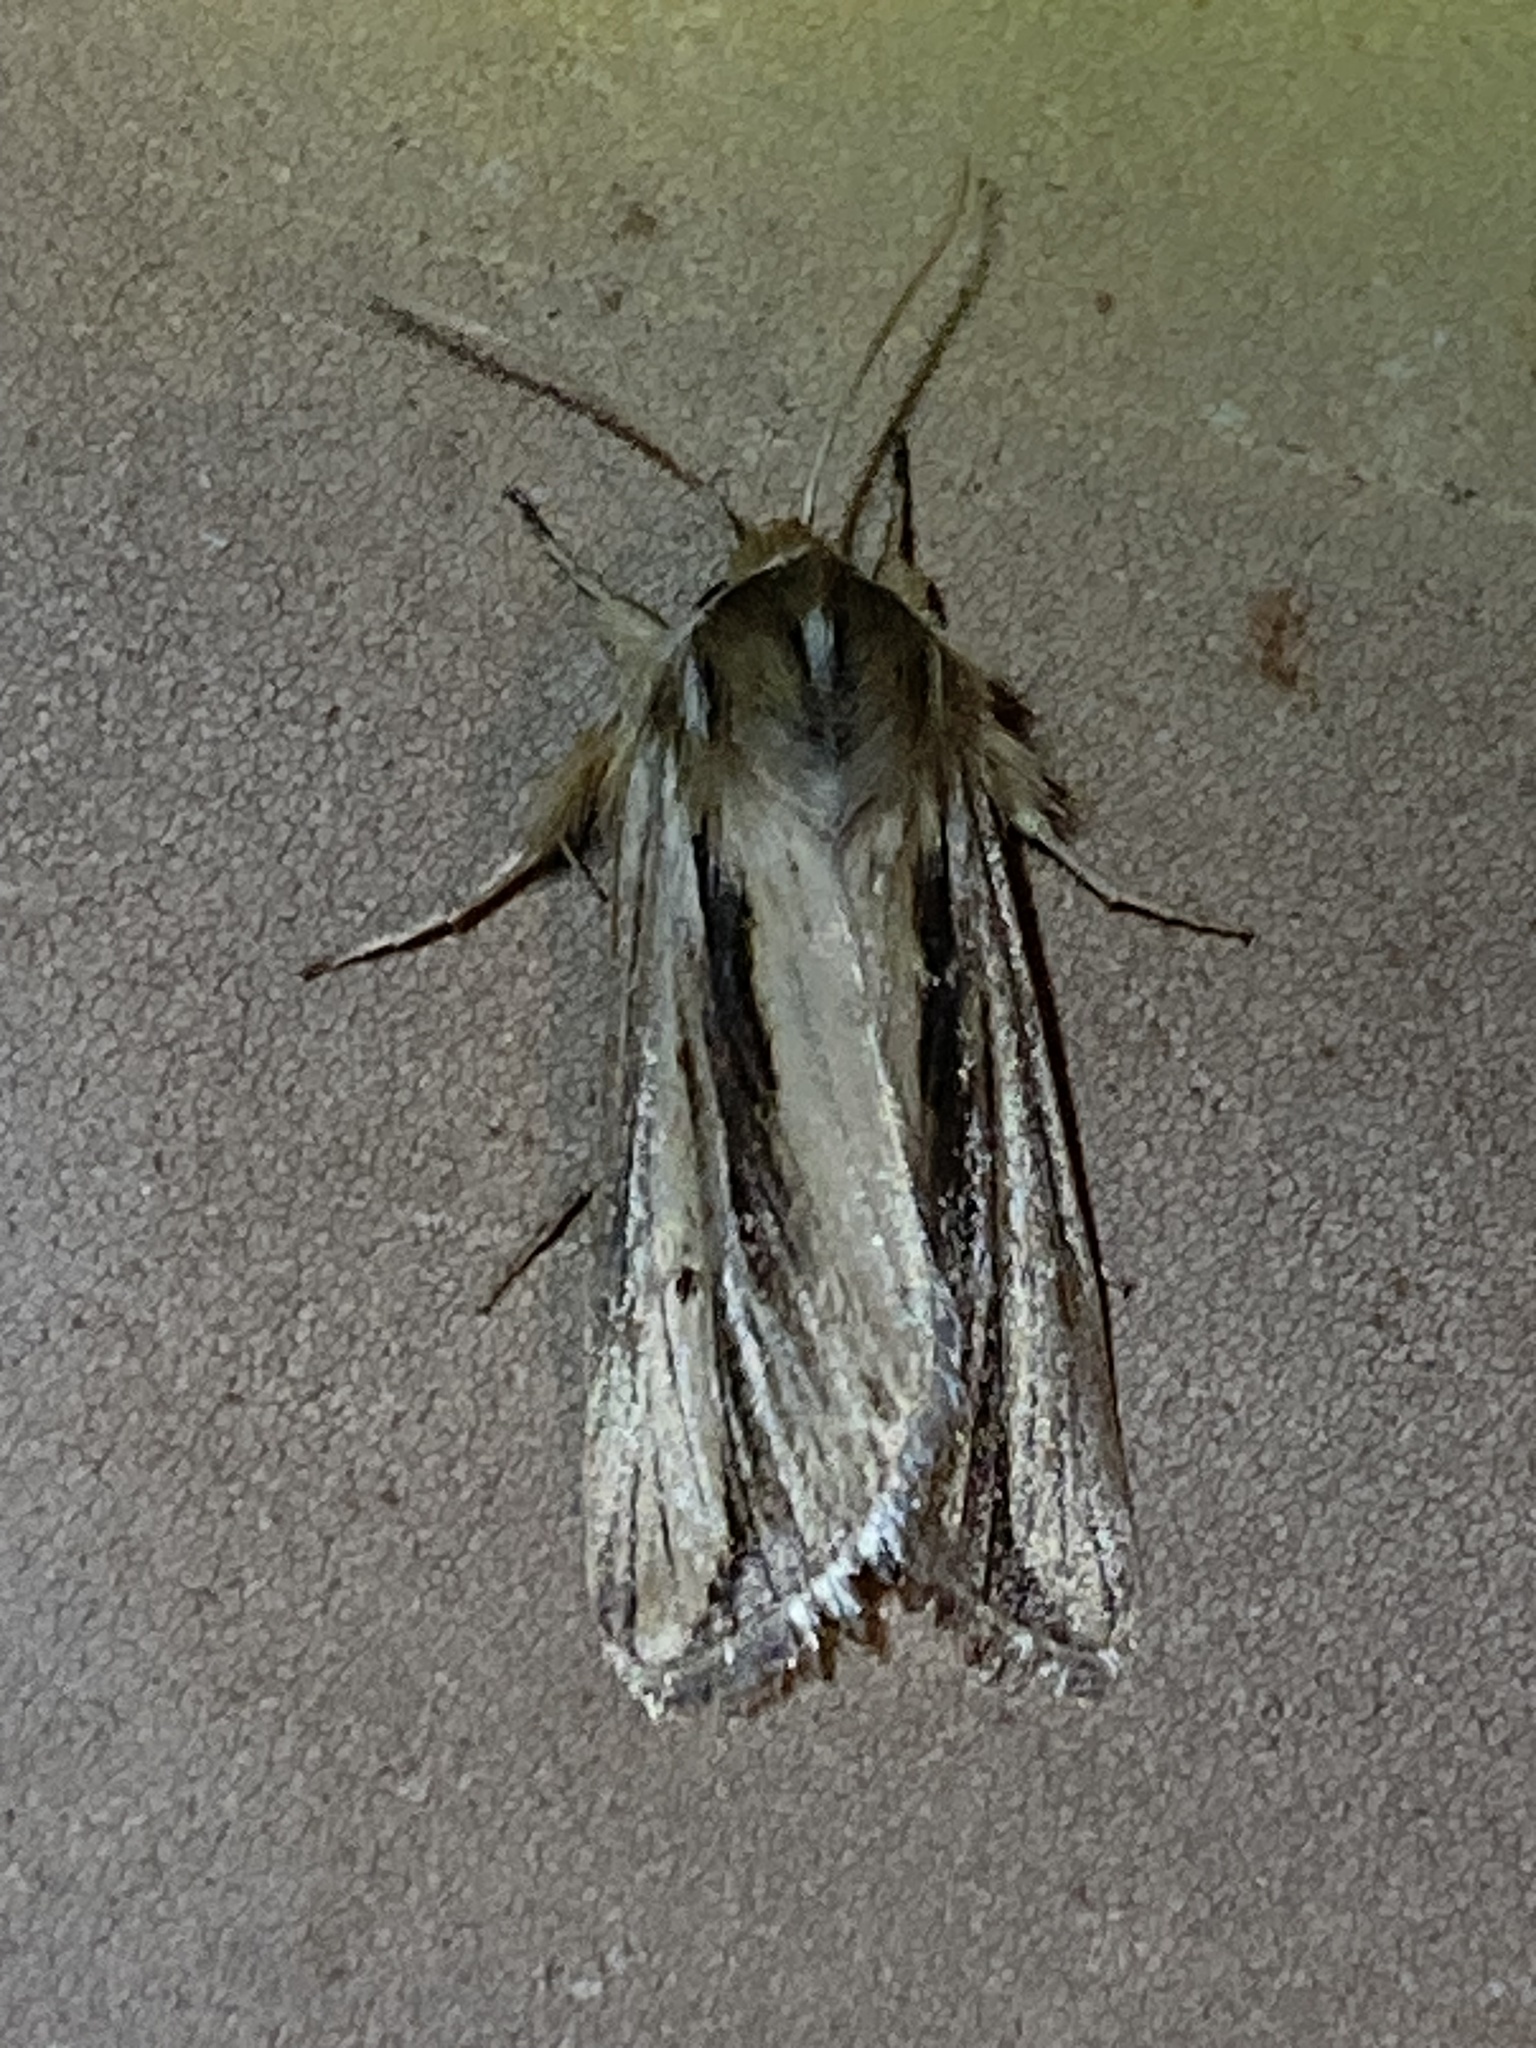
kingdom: Animalia
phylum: Arthropoda
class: Insecta
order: Lepidoptera
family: Noctuidae
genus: Dargida
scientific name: Dargida diffusa
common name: Wheat head armyworm
